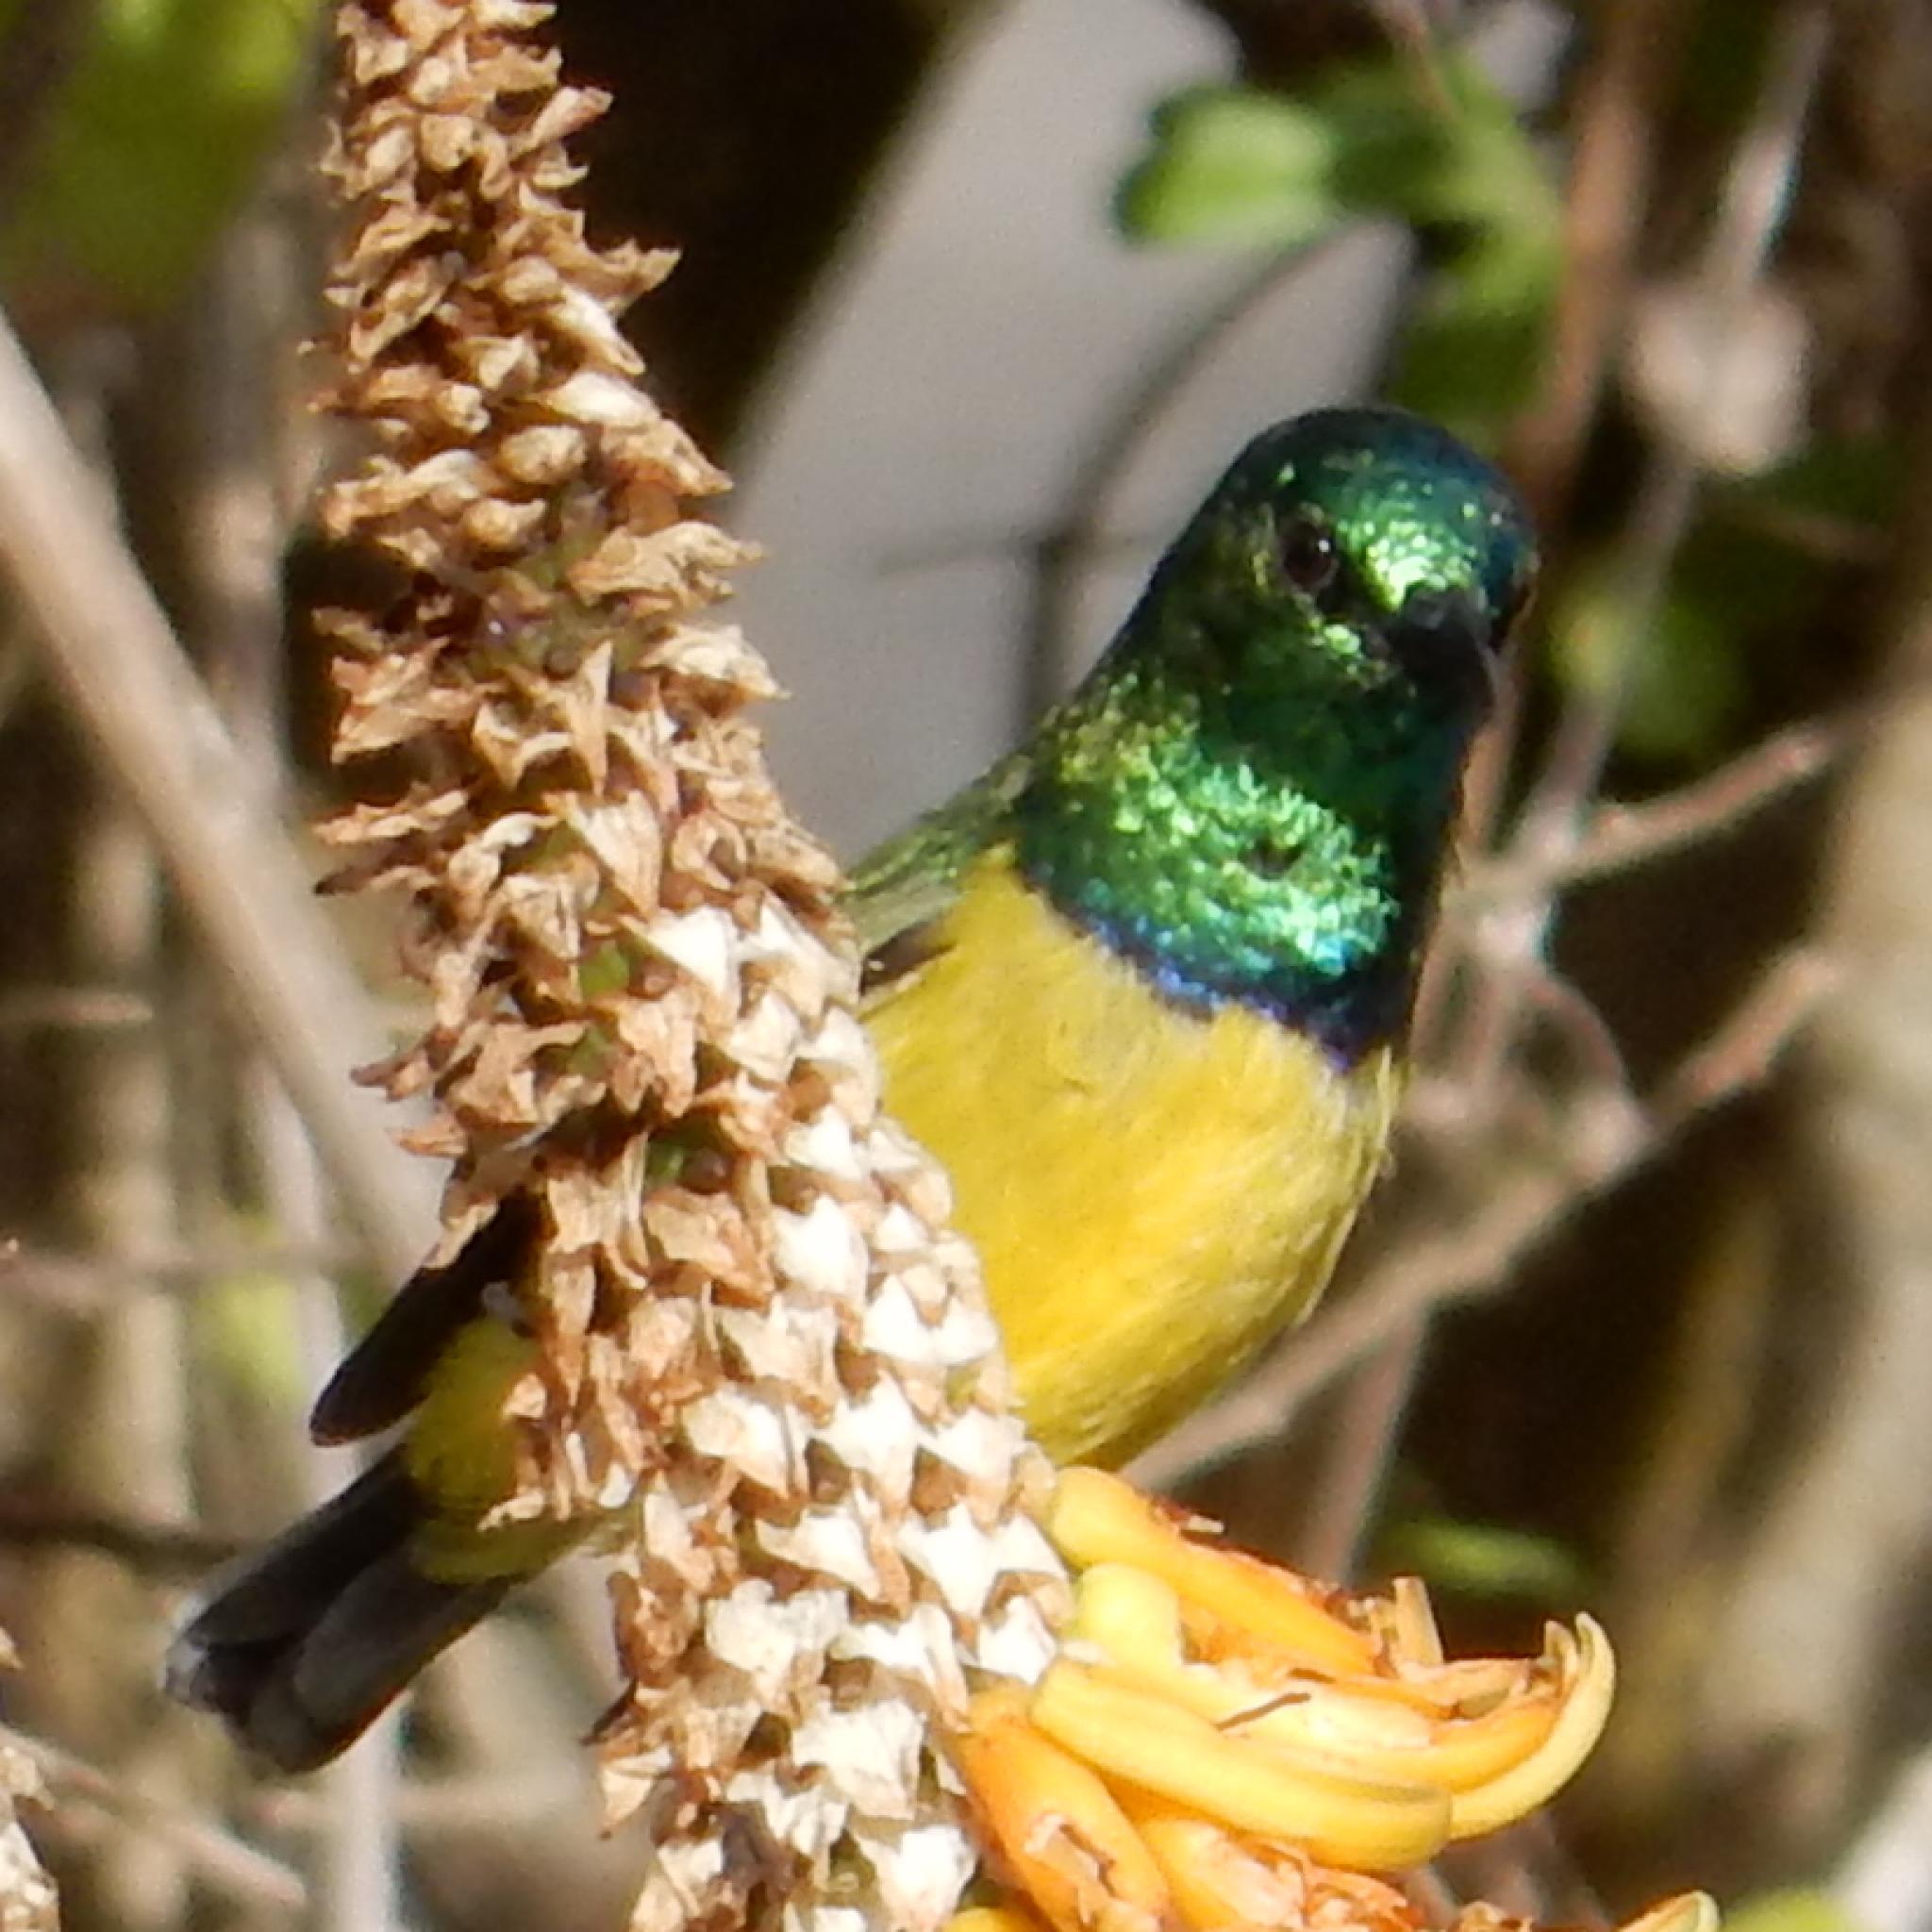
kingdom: Animalia
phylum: Chordata
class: Aves
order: Passeriformes
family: Nectariniidae
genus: Hedydipna
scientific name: Hedydipna collaris
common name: Collared sunbird
